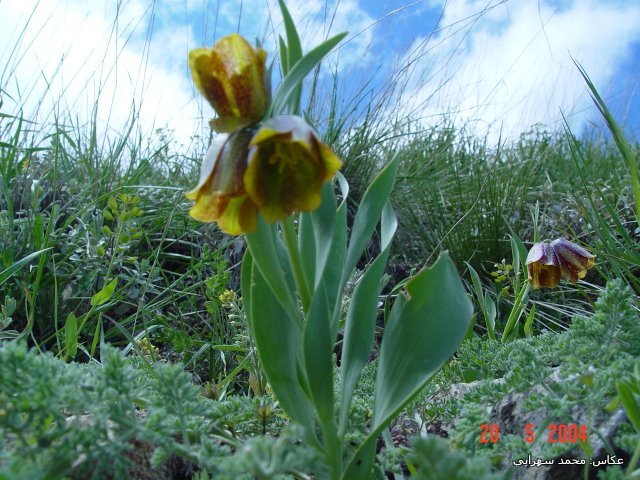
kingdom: Plantae
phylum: Tracheophyta
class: Liliopsida
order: Liliales
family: Liliaceae
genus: Fritillaria
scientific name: Fritillaria kurdica
